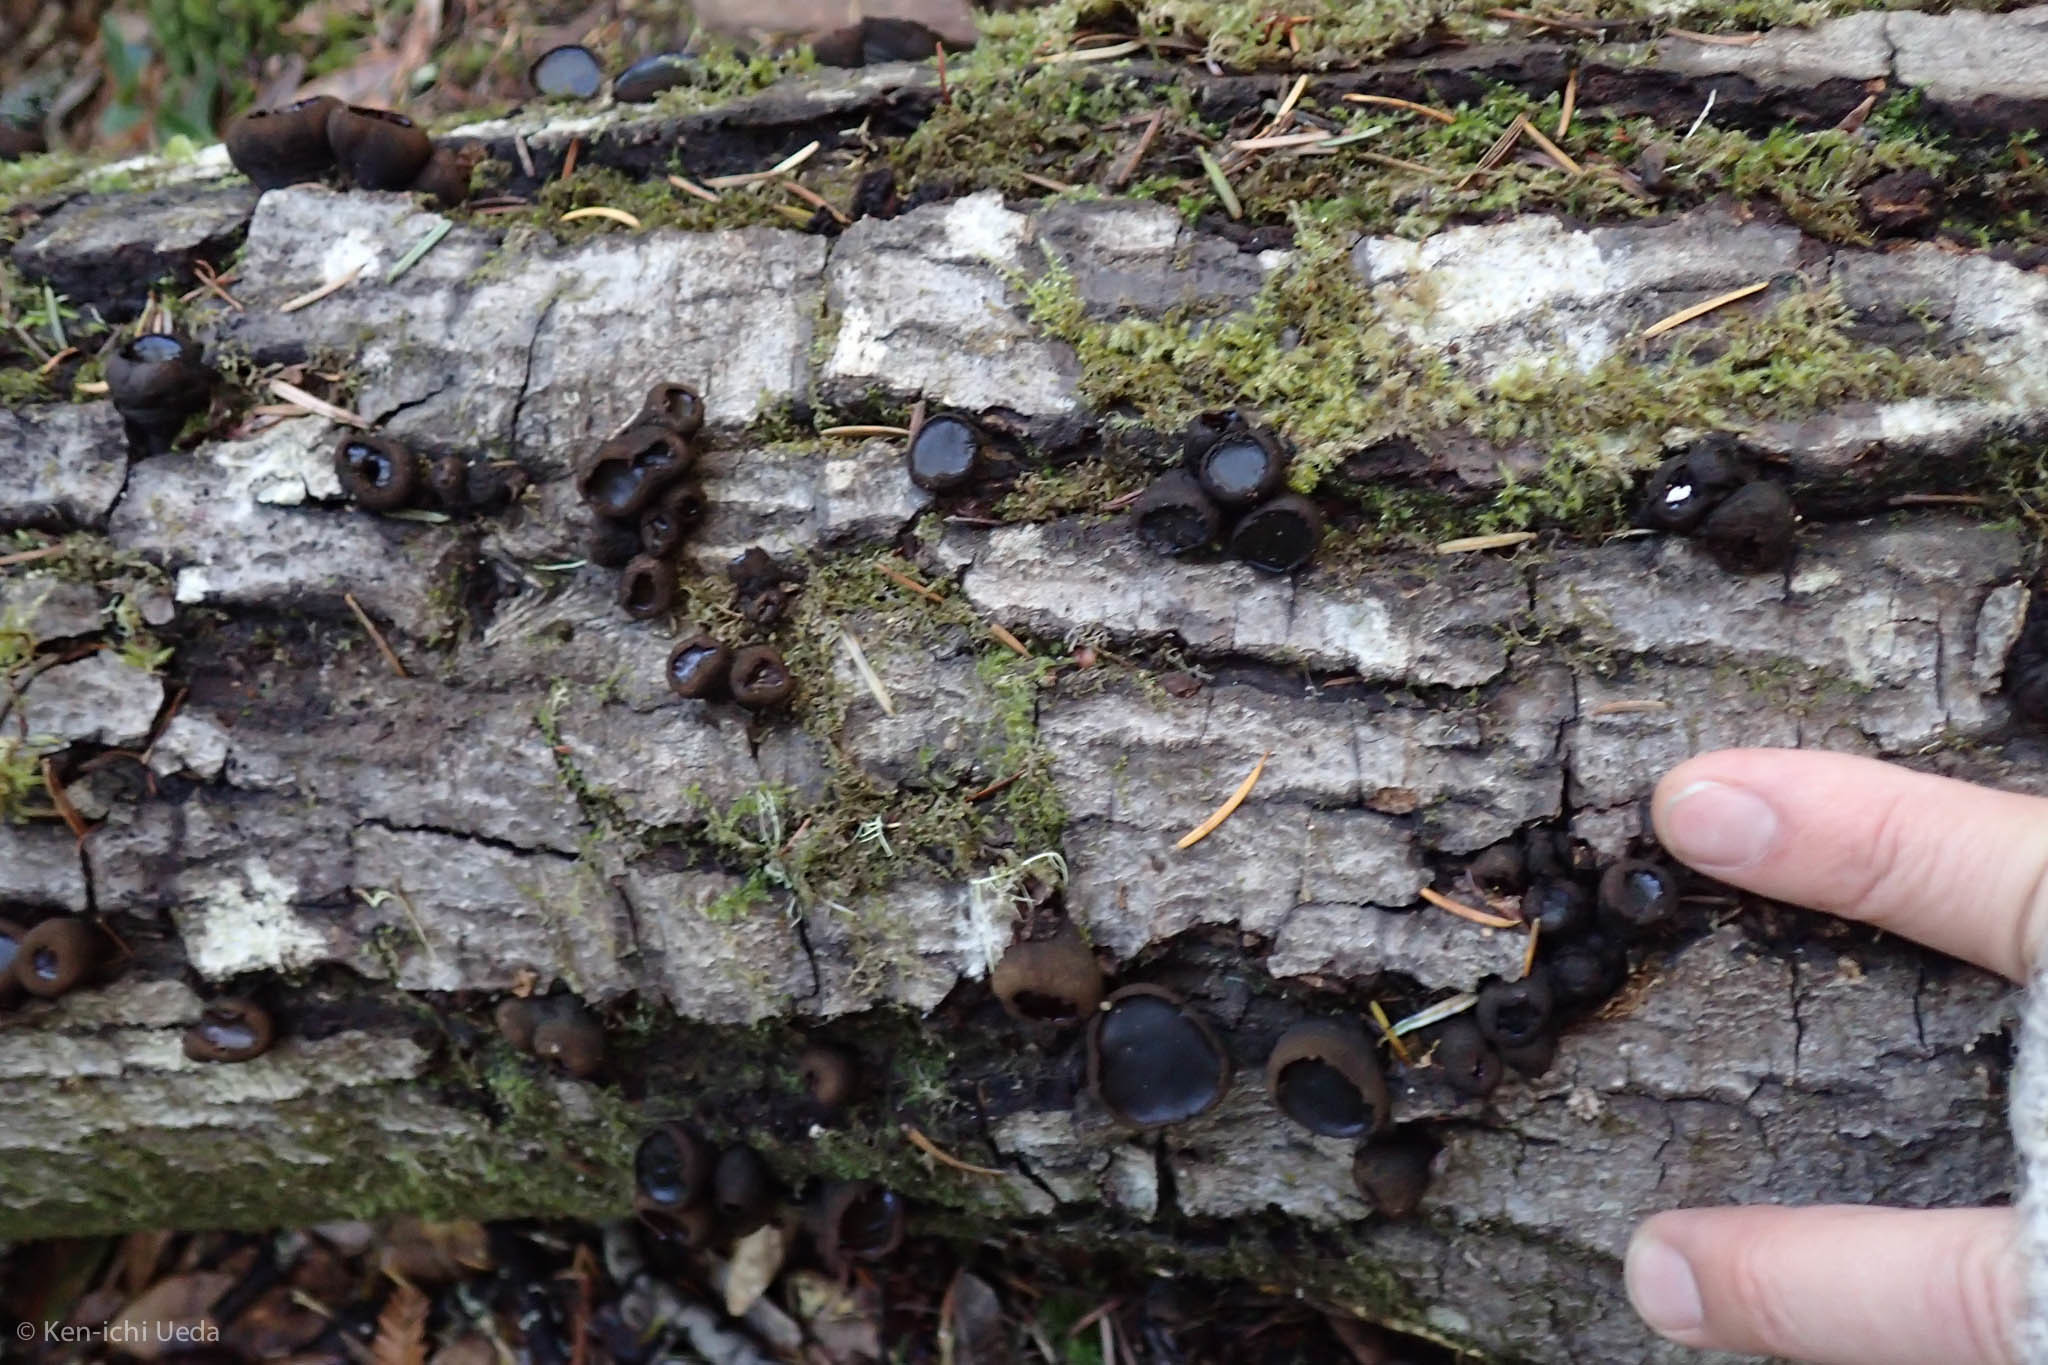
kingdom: Fungi
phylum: Ascomycota
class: Leotiomycetes
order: Phacidiales
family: Phacidiaceae
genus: Bulgaria
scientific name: Bulgaria inquinans
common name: Black bulgar
